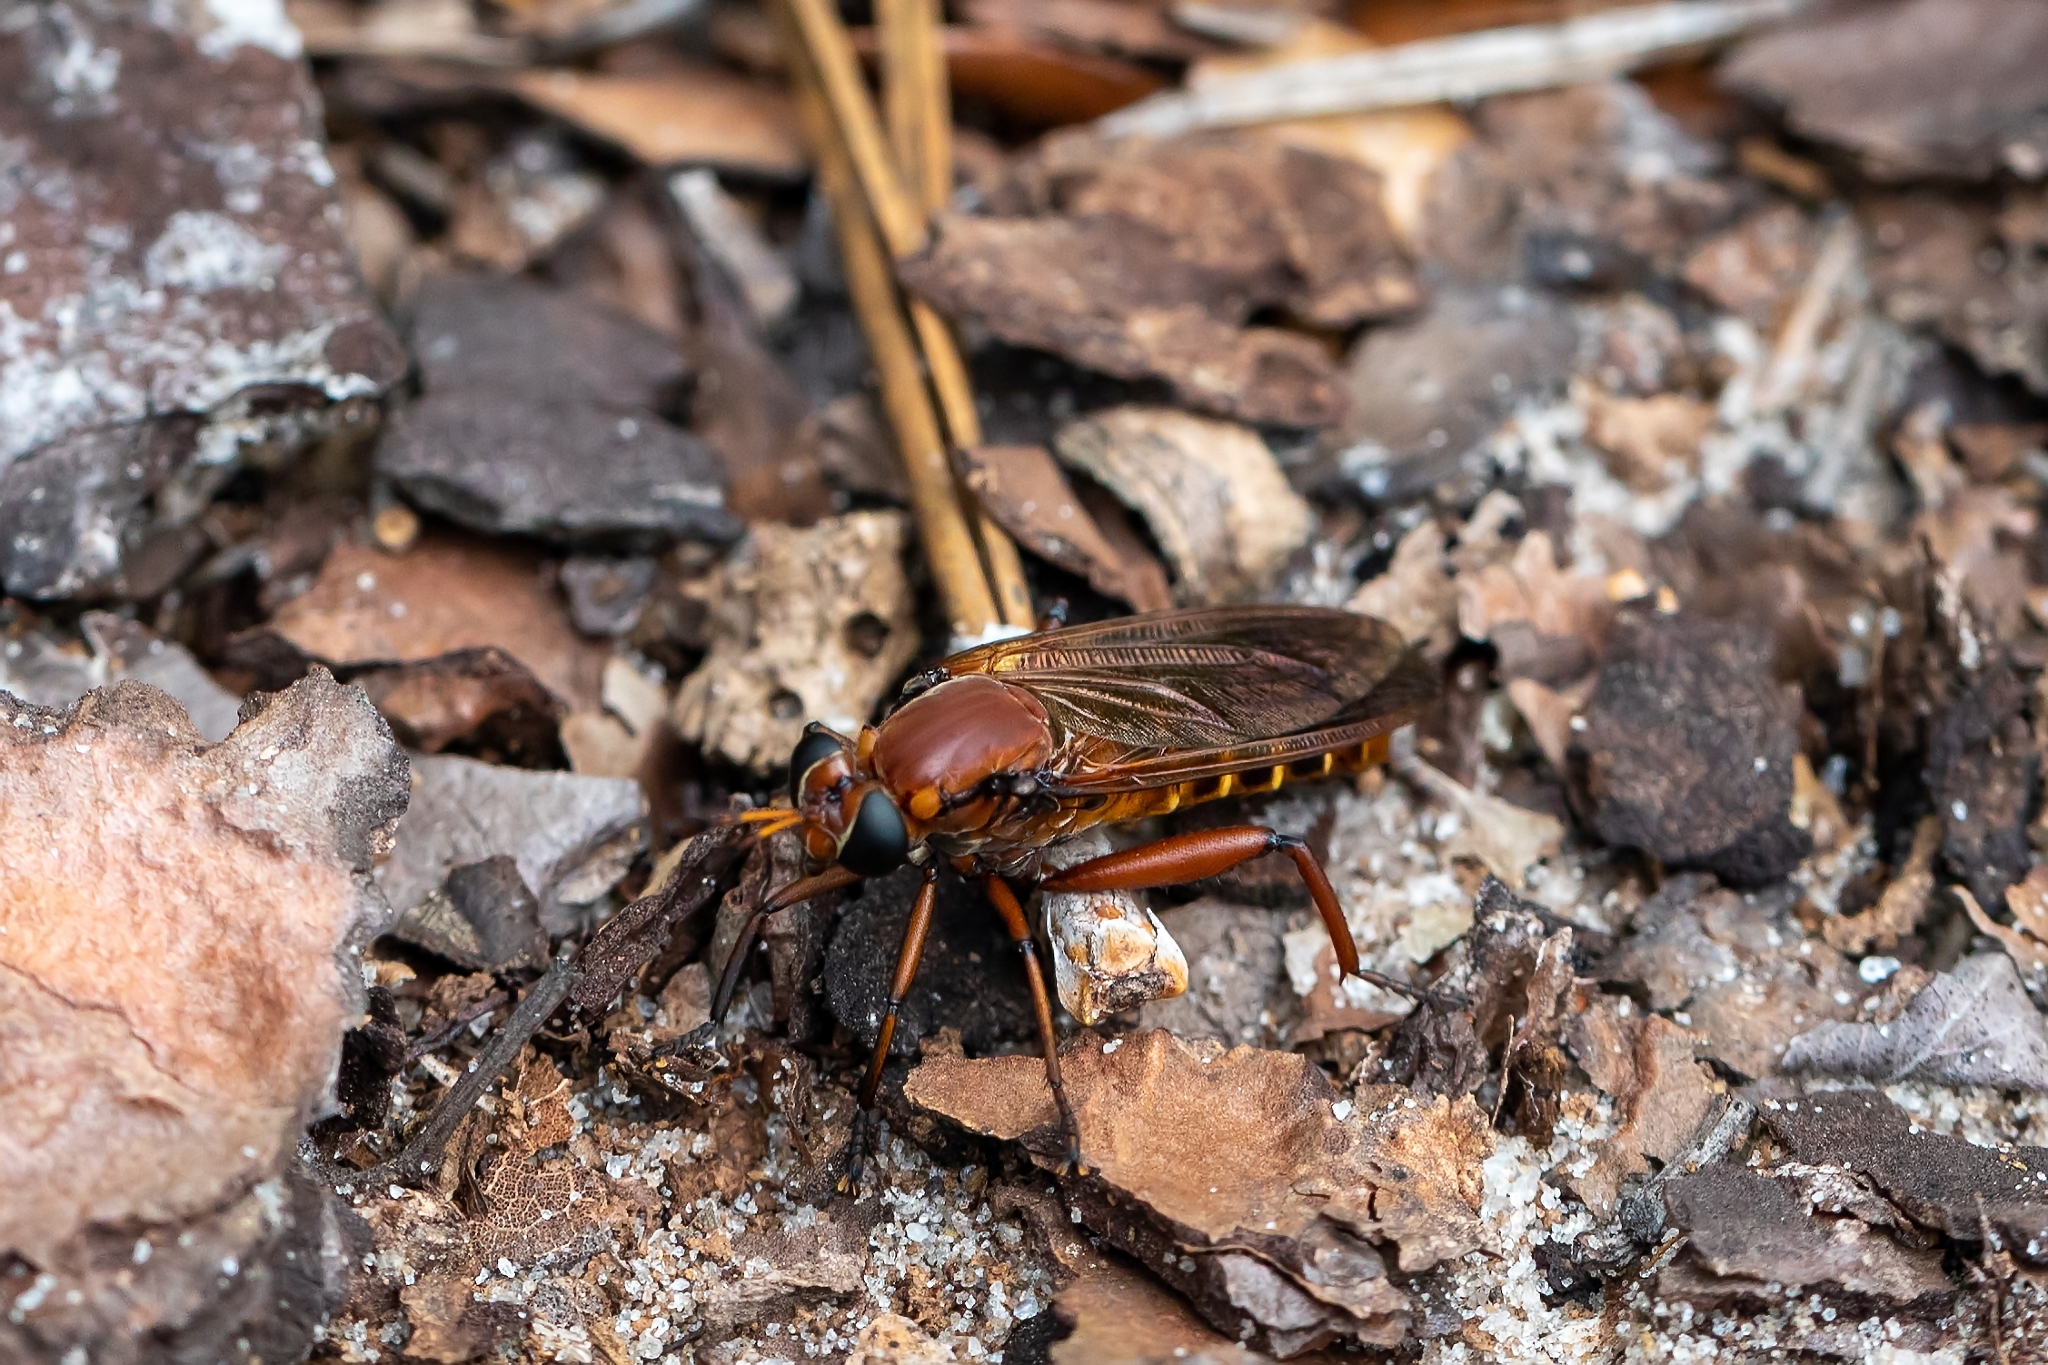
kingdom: Animalia
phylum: Arthropoda
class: Insecta
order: Diptera
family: Mydidae
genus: Mydas
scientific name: Mydas maculiventris
